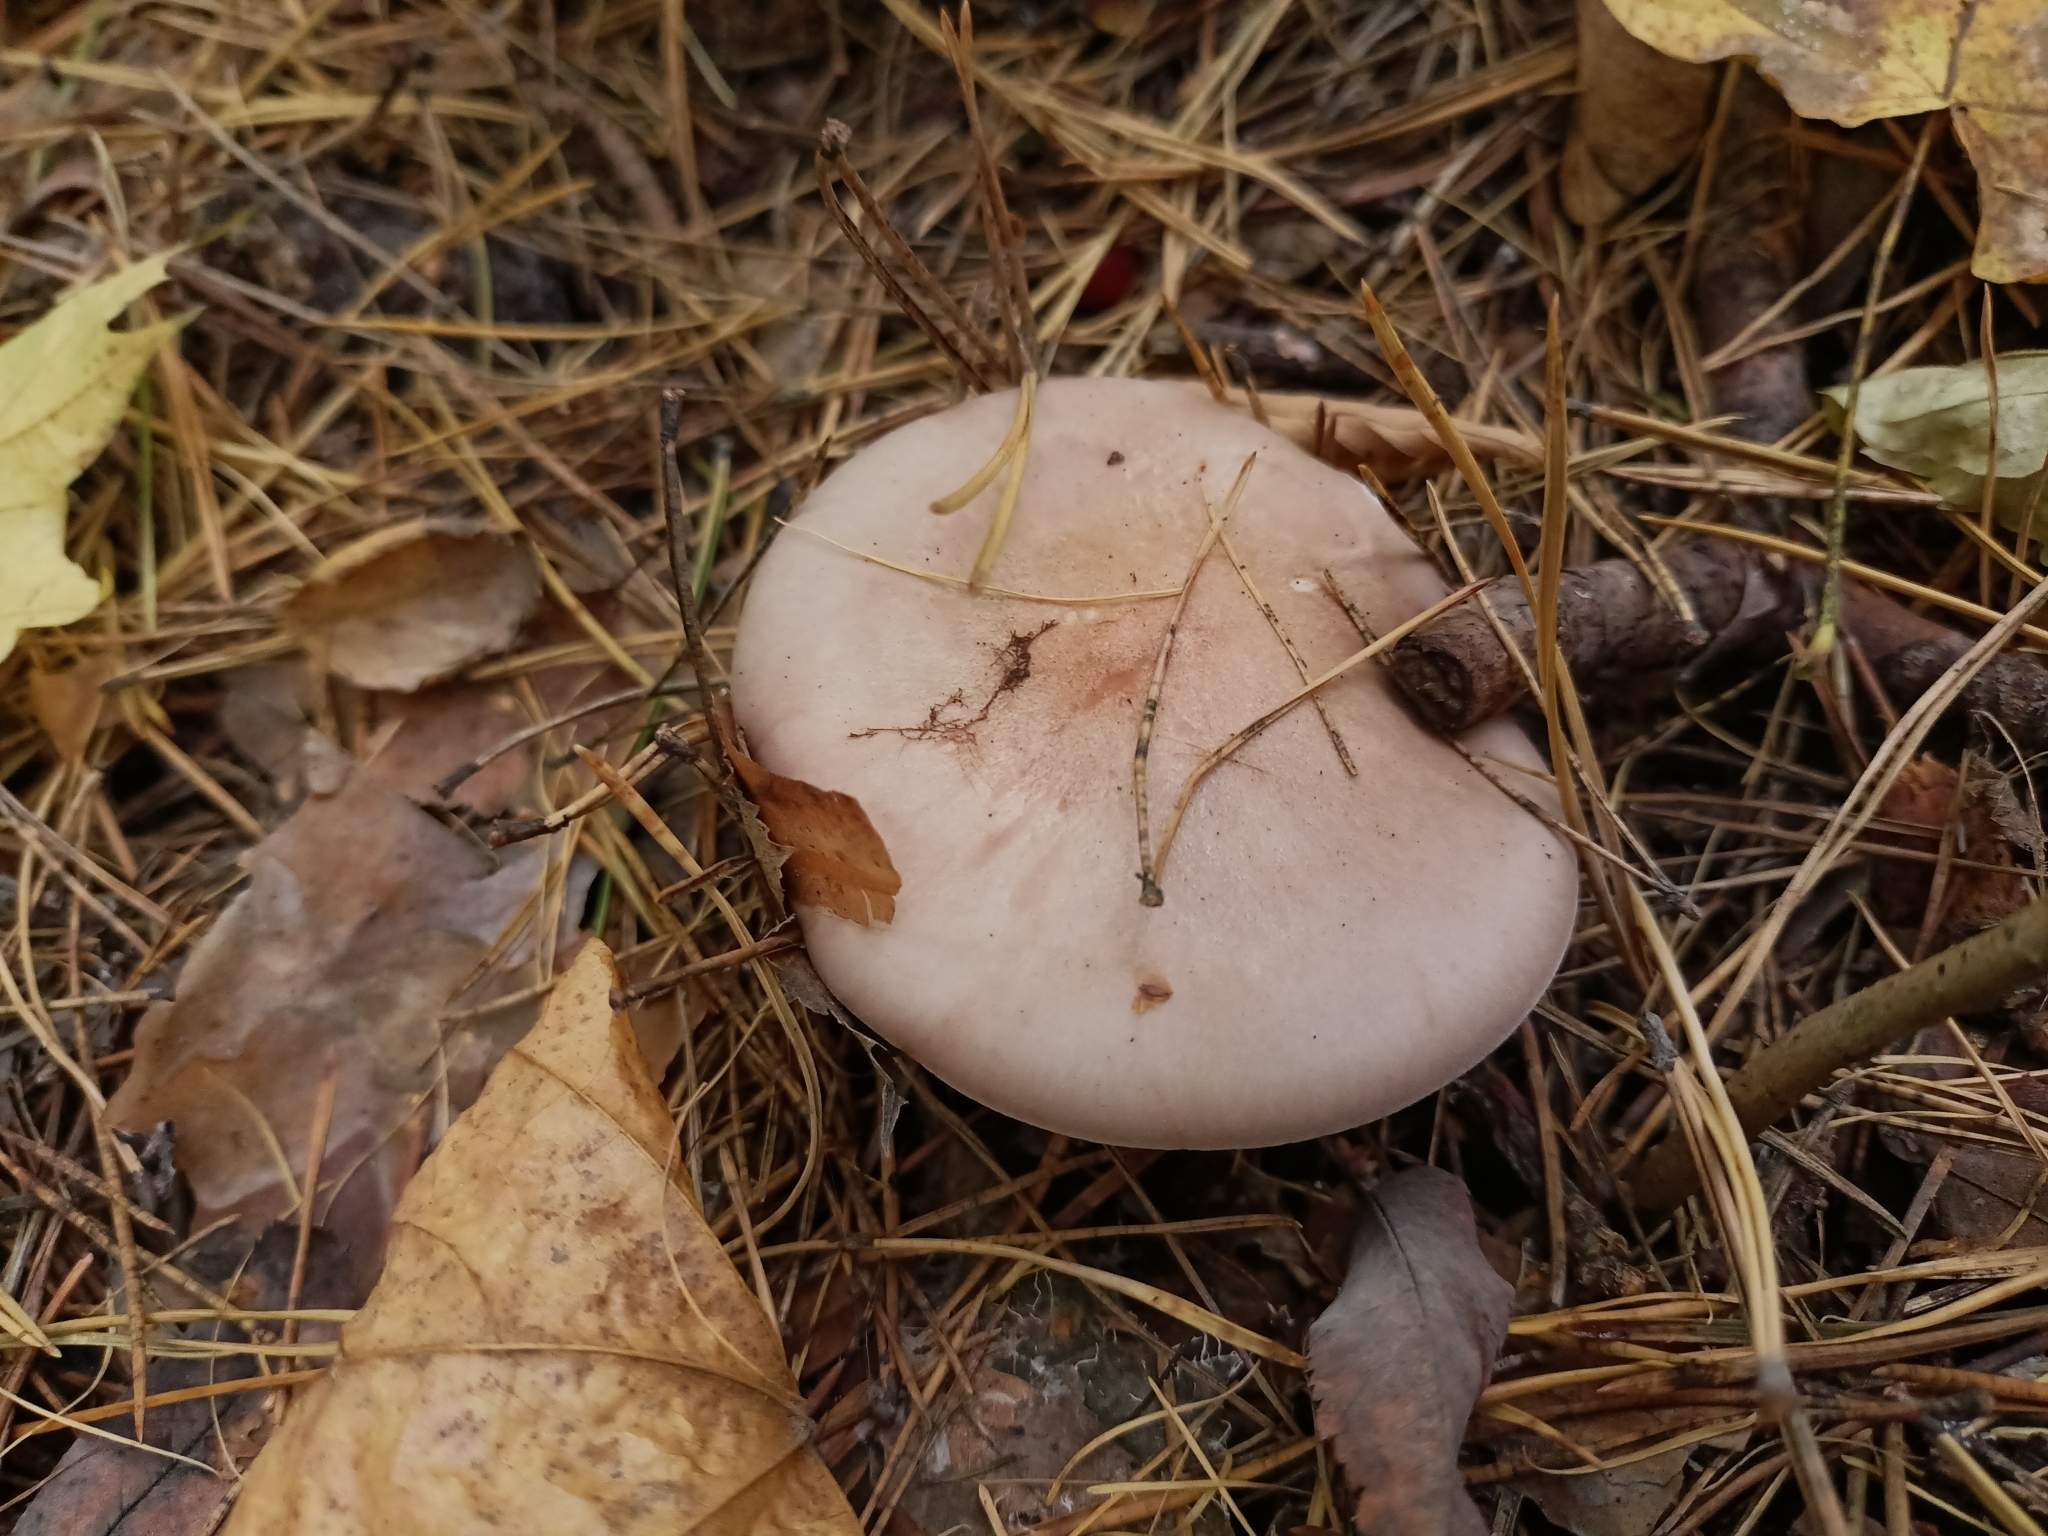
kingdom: Fungi
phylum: Basidiomycota
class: Agaricomycetes
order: Agaricales
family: Tricholomataceae
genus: Collybia
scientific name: Collybia
